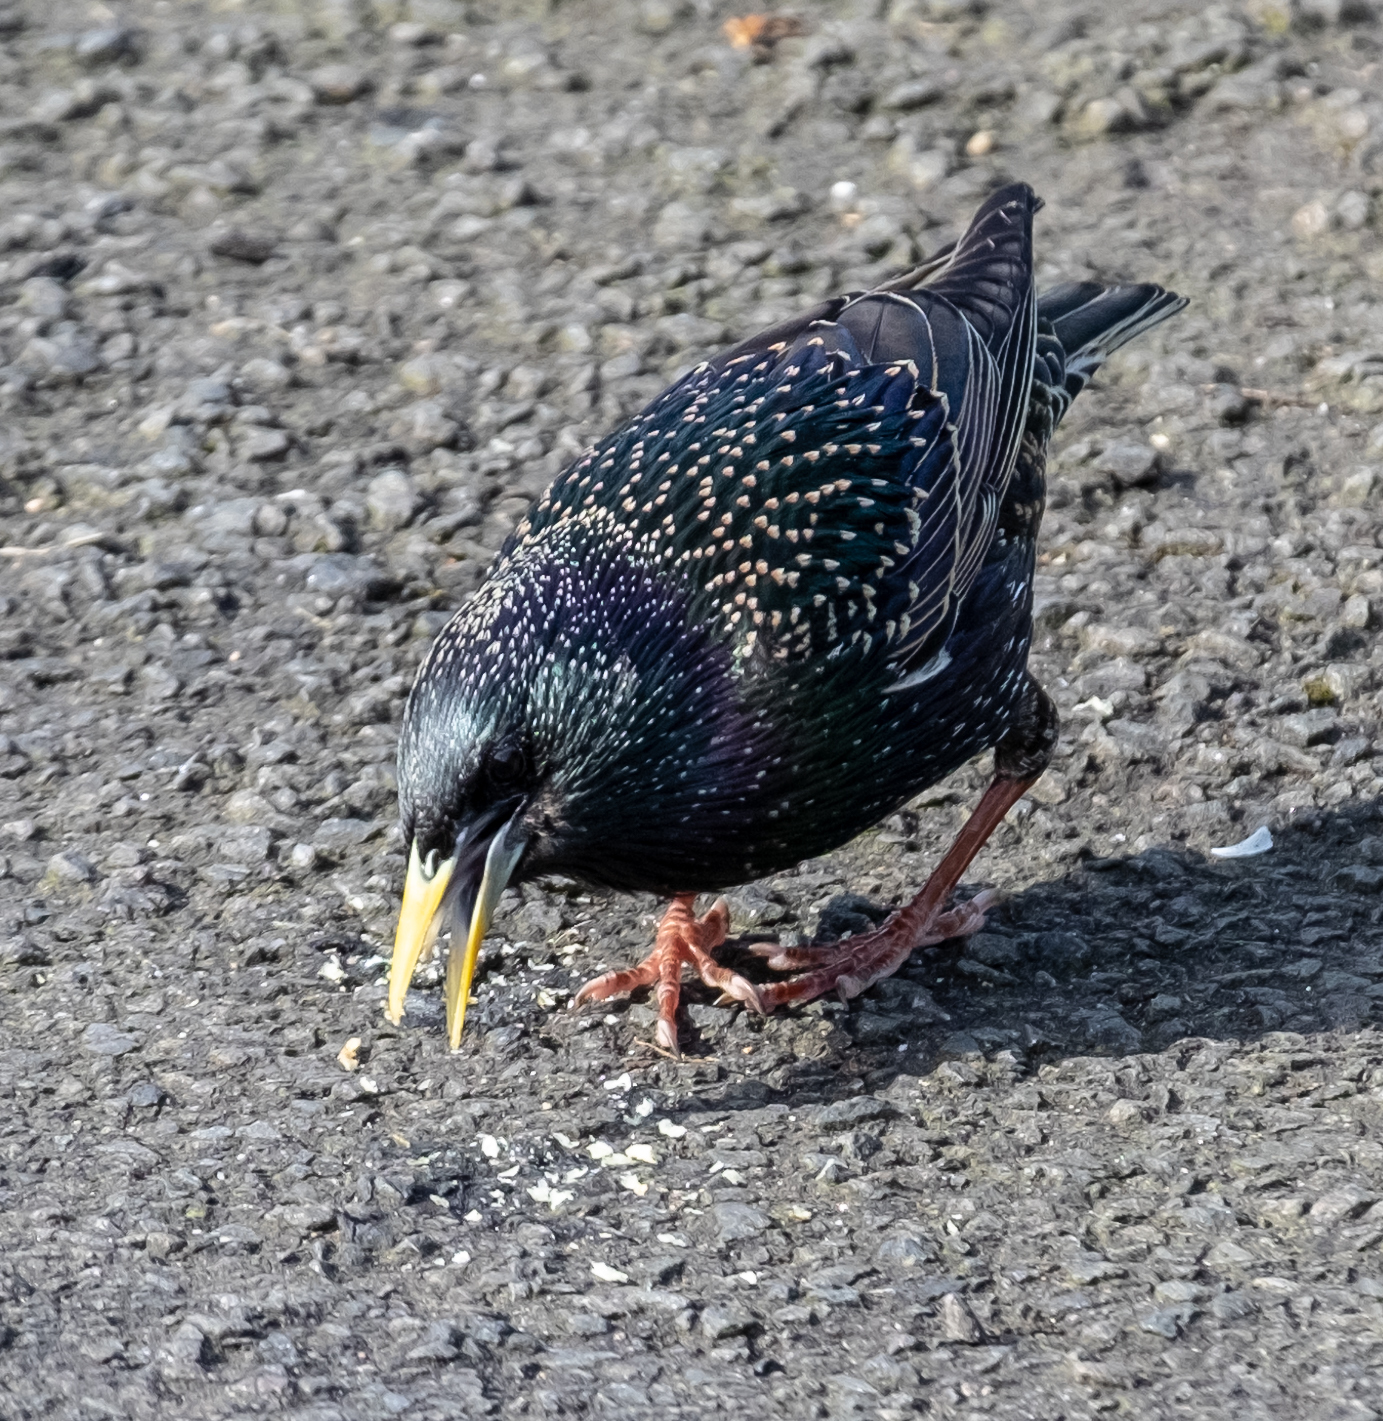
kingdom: Animalia
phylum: Chordata
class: Aves
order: Passeriformes
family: Sturnidae
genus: Sturnus
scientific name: Sturnus vulgaris
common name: Common starling
